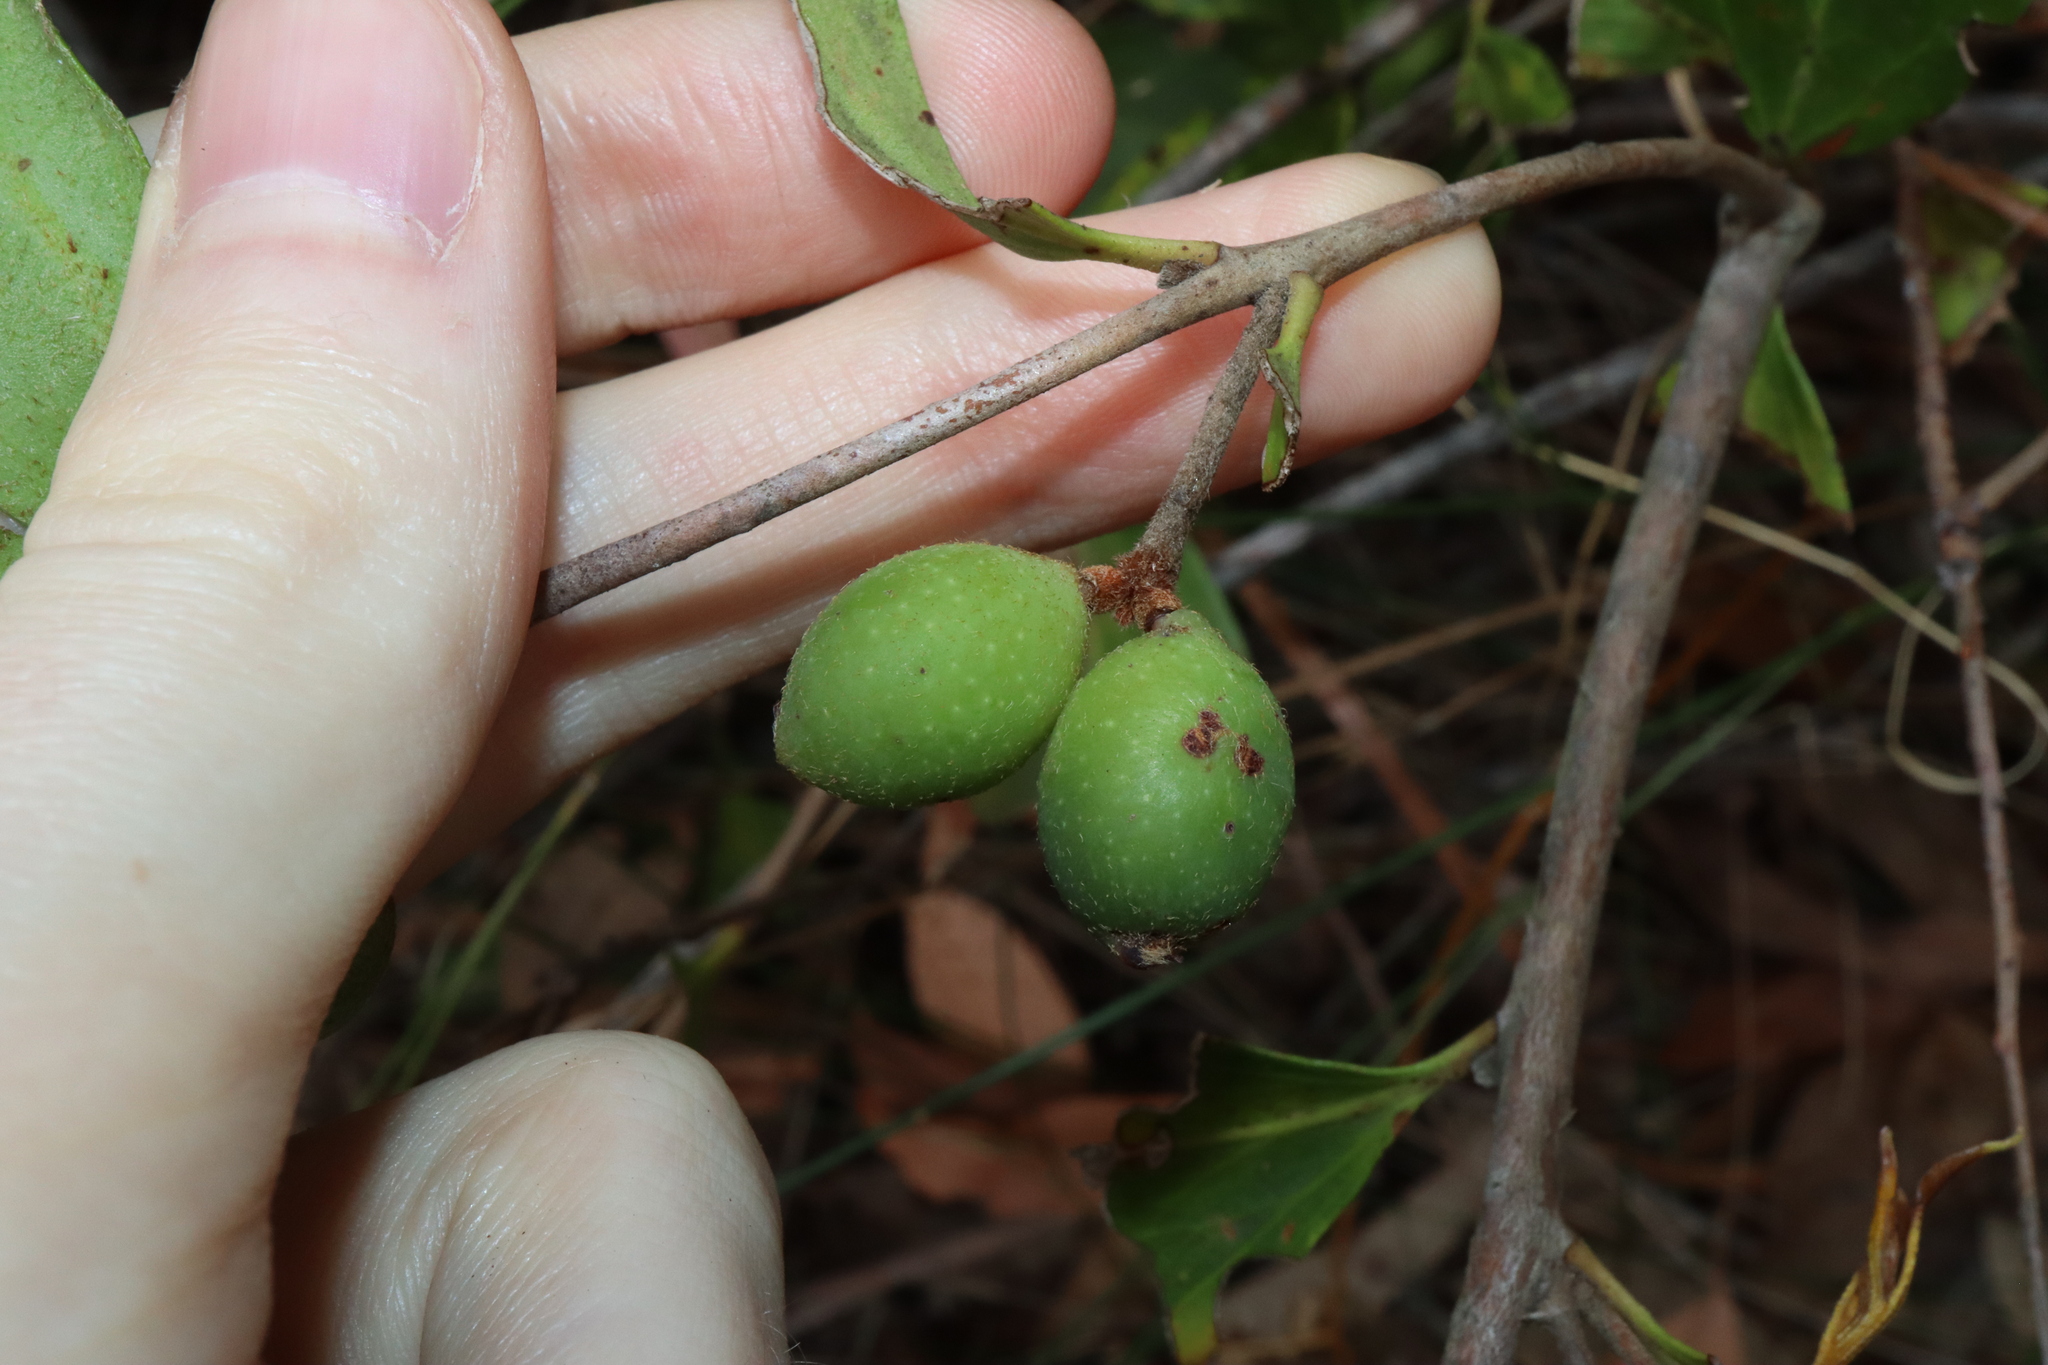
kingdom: Plantae
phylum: Tracheophyta
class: Magnoliopsida
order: Proteales
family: Proteaceae
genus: Persoonia
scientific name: Persoonia laurina
